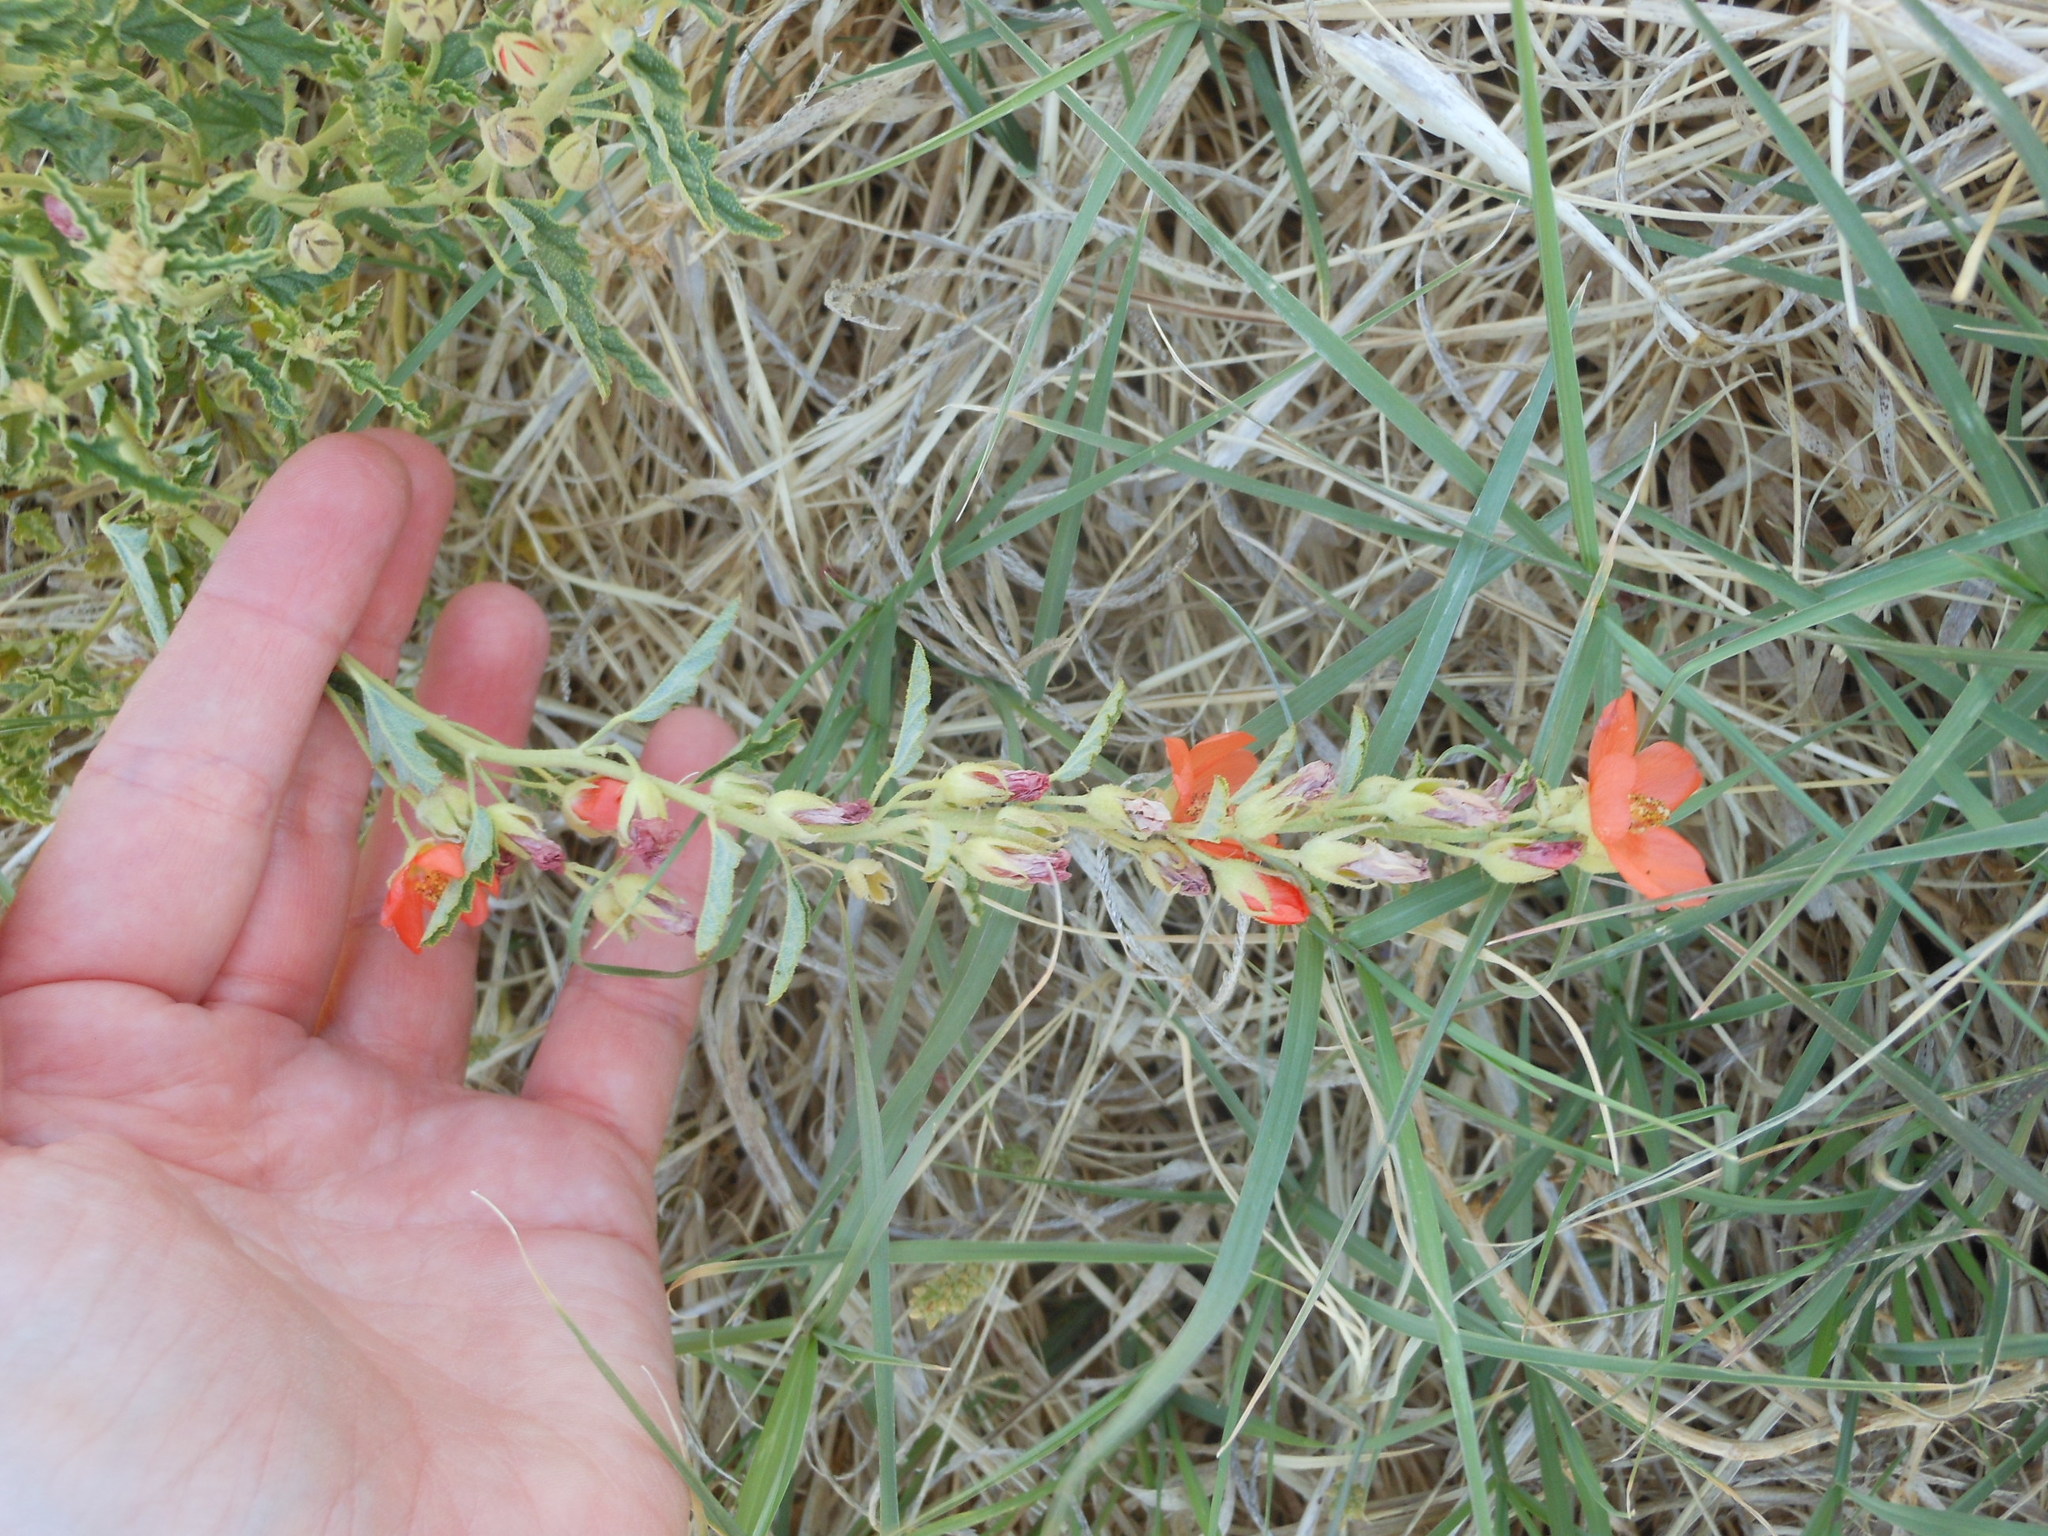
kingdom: Plantae
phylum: Tracheophyta
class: Magnoliopsida
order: Malvales
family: Malvaceae
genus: Sphaeralcea
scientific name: Sphaeralcea hastulata
